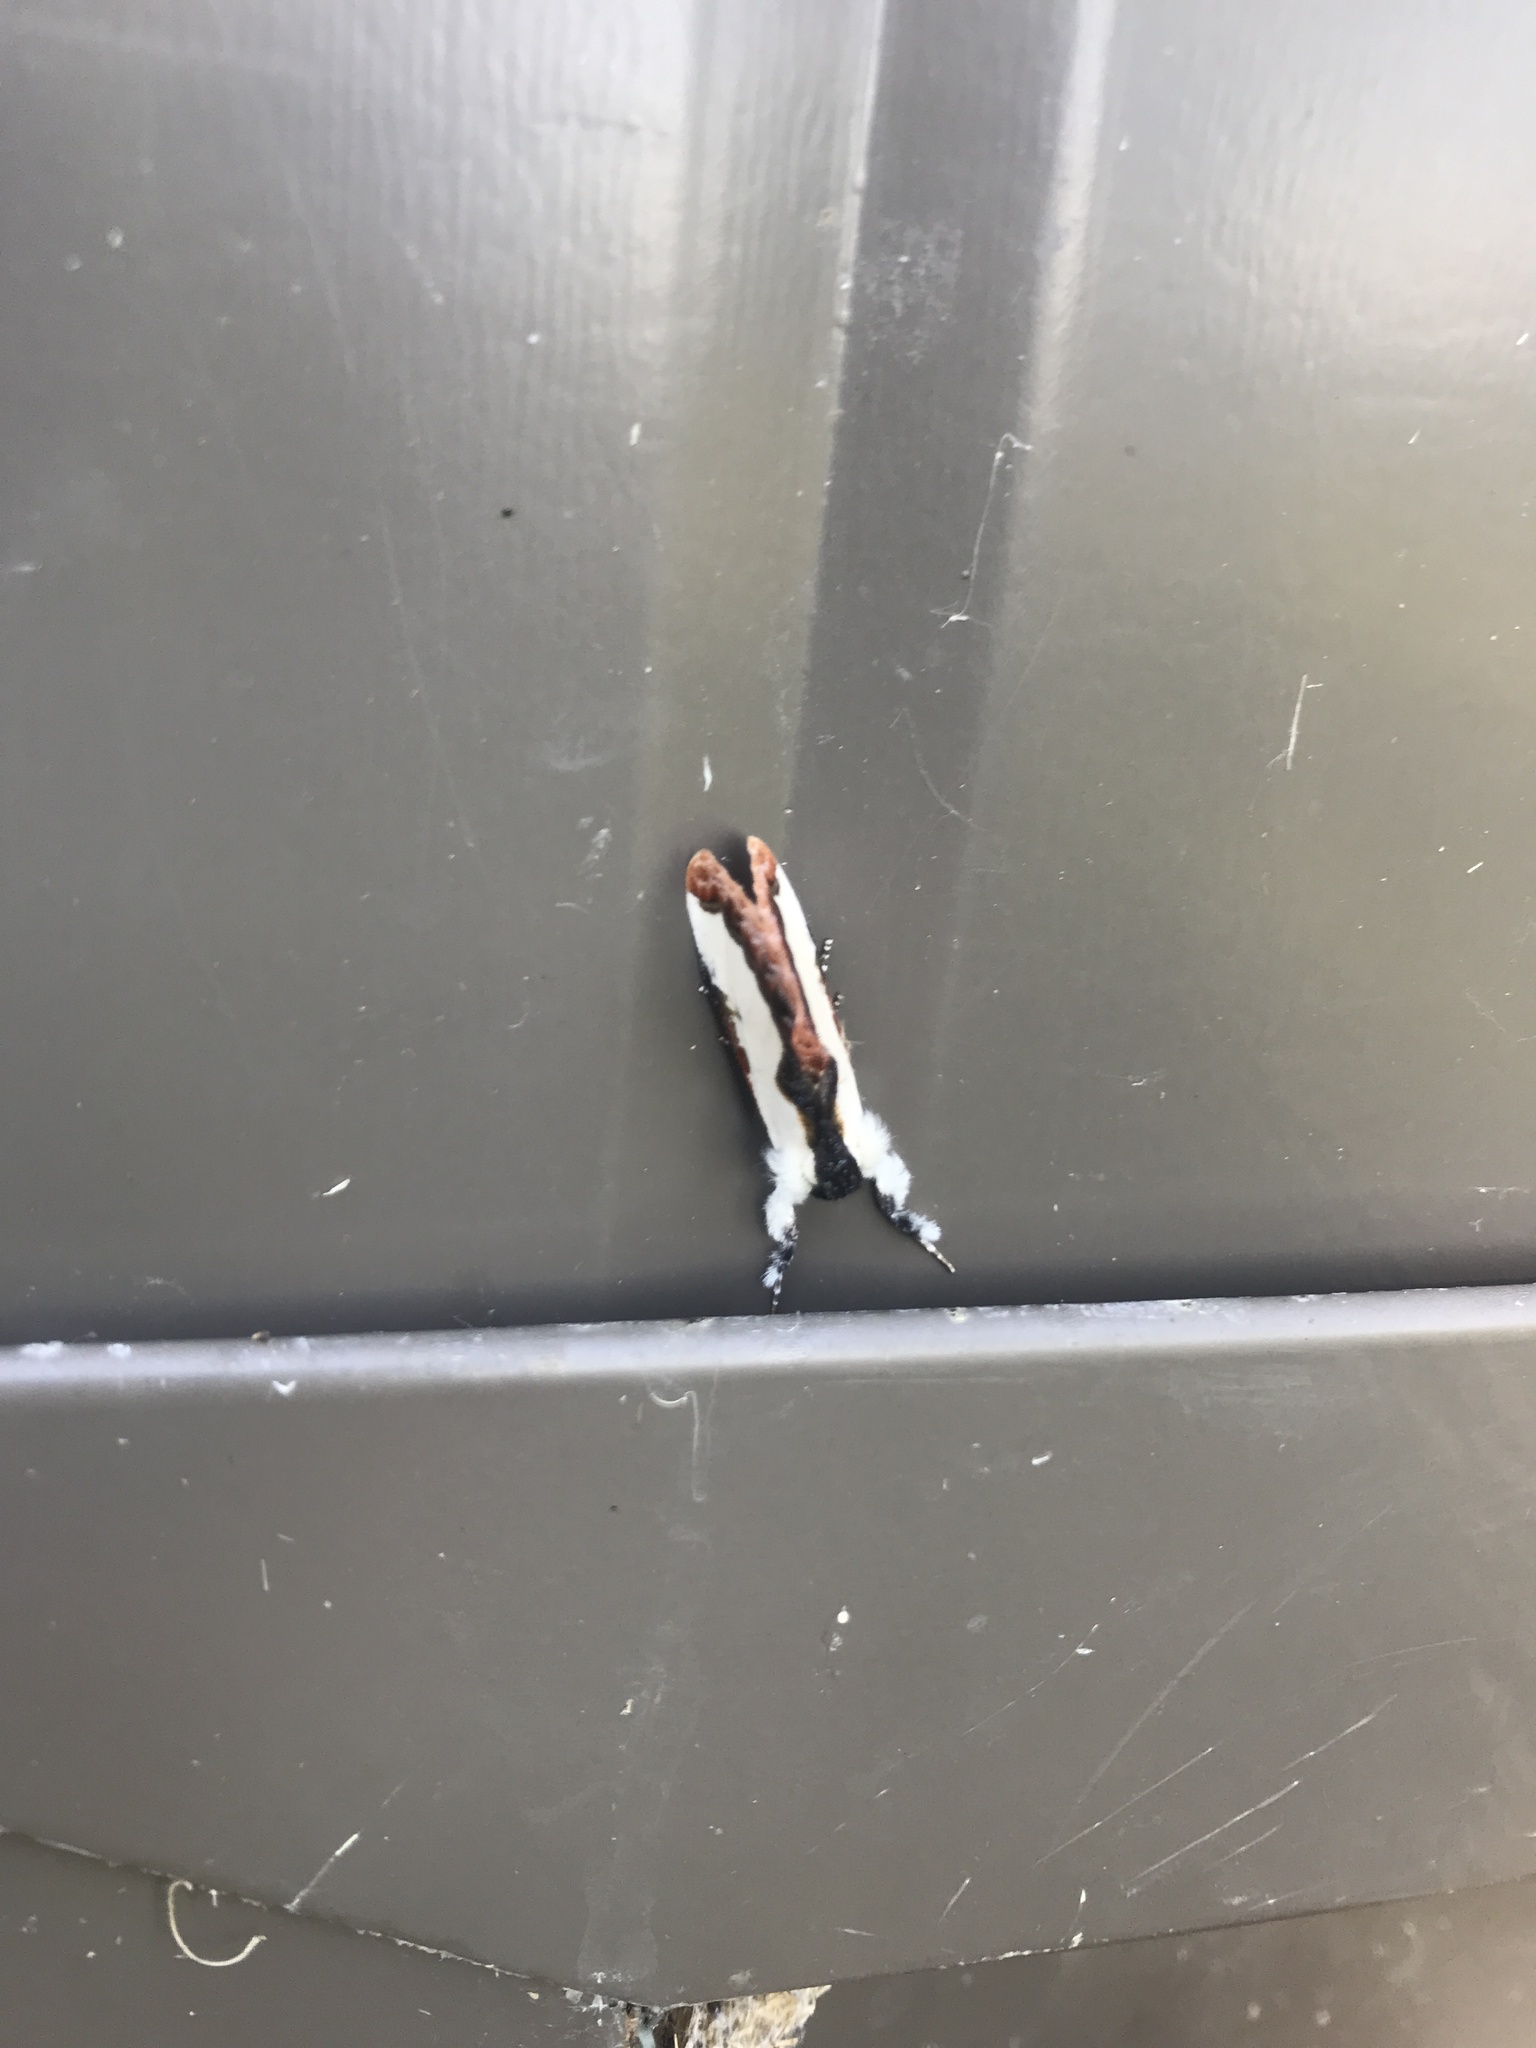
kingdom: Animalia
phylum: Arthropoda
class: Insecta
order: Lepidoptera
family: Noctuidae
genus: Eudryas
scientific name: Eudryas unio
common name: Pearly wood-nymph
